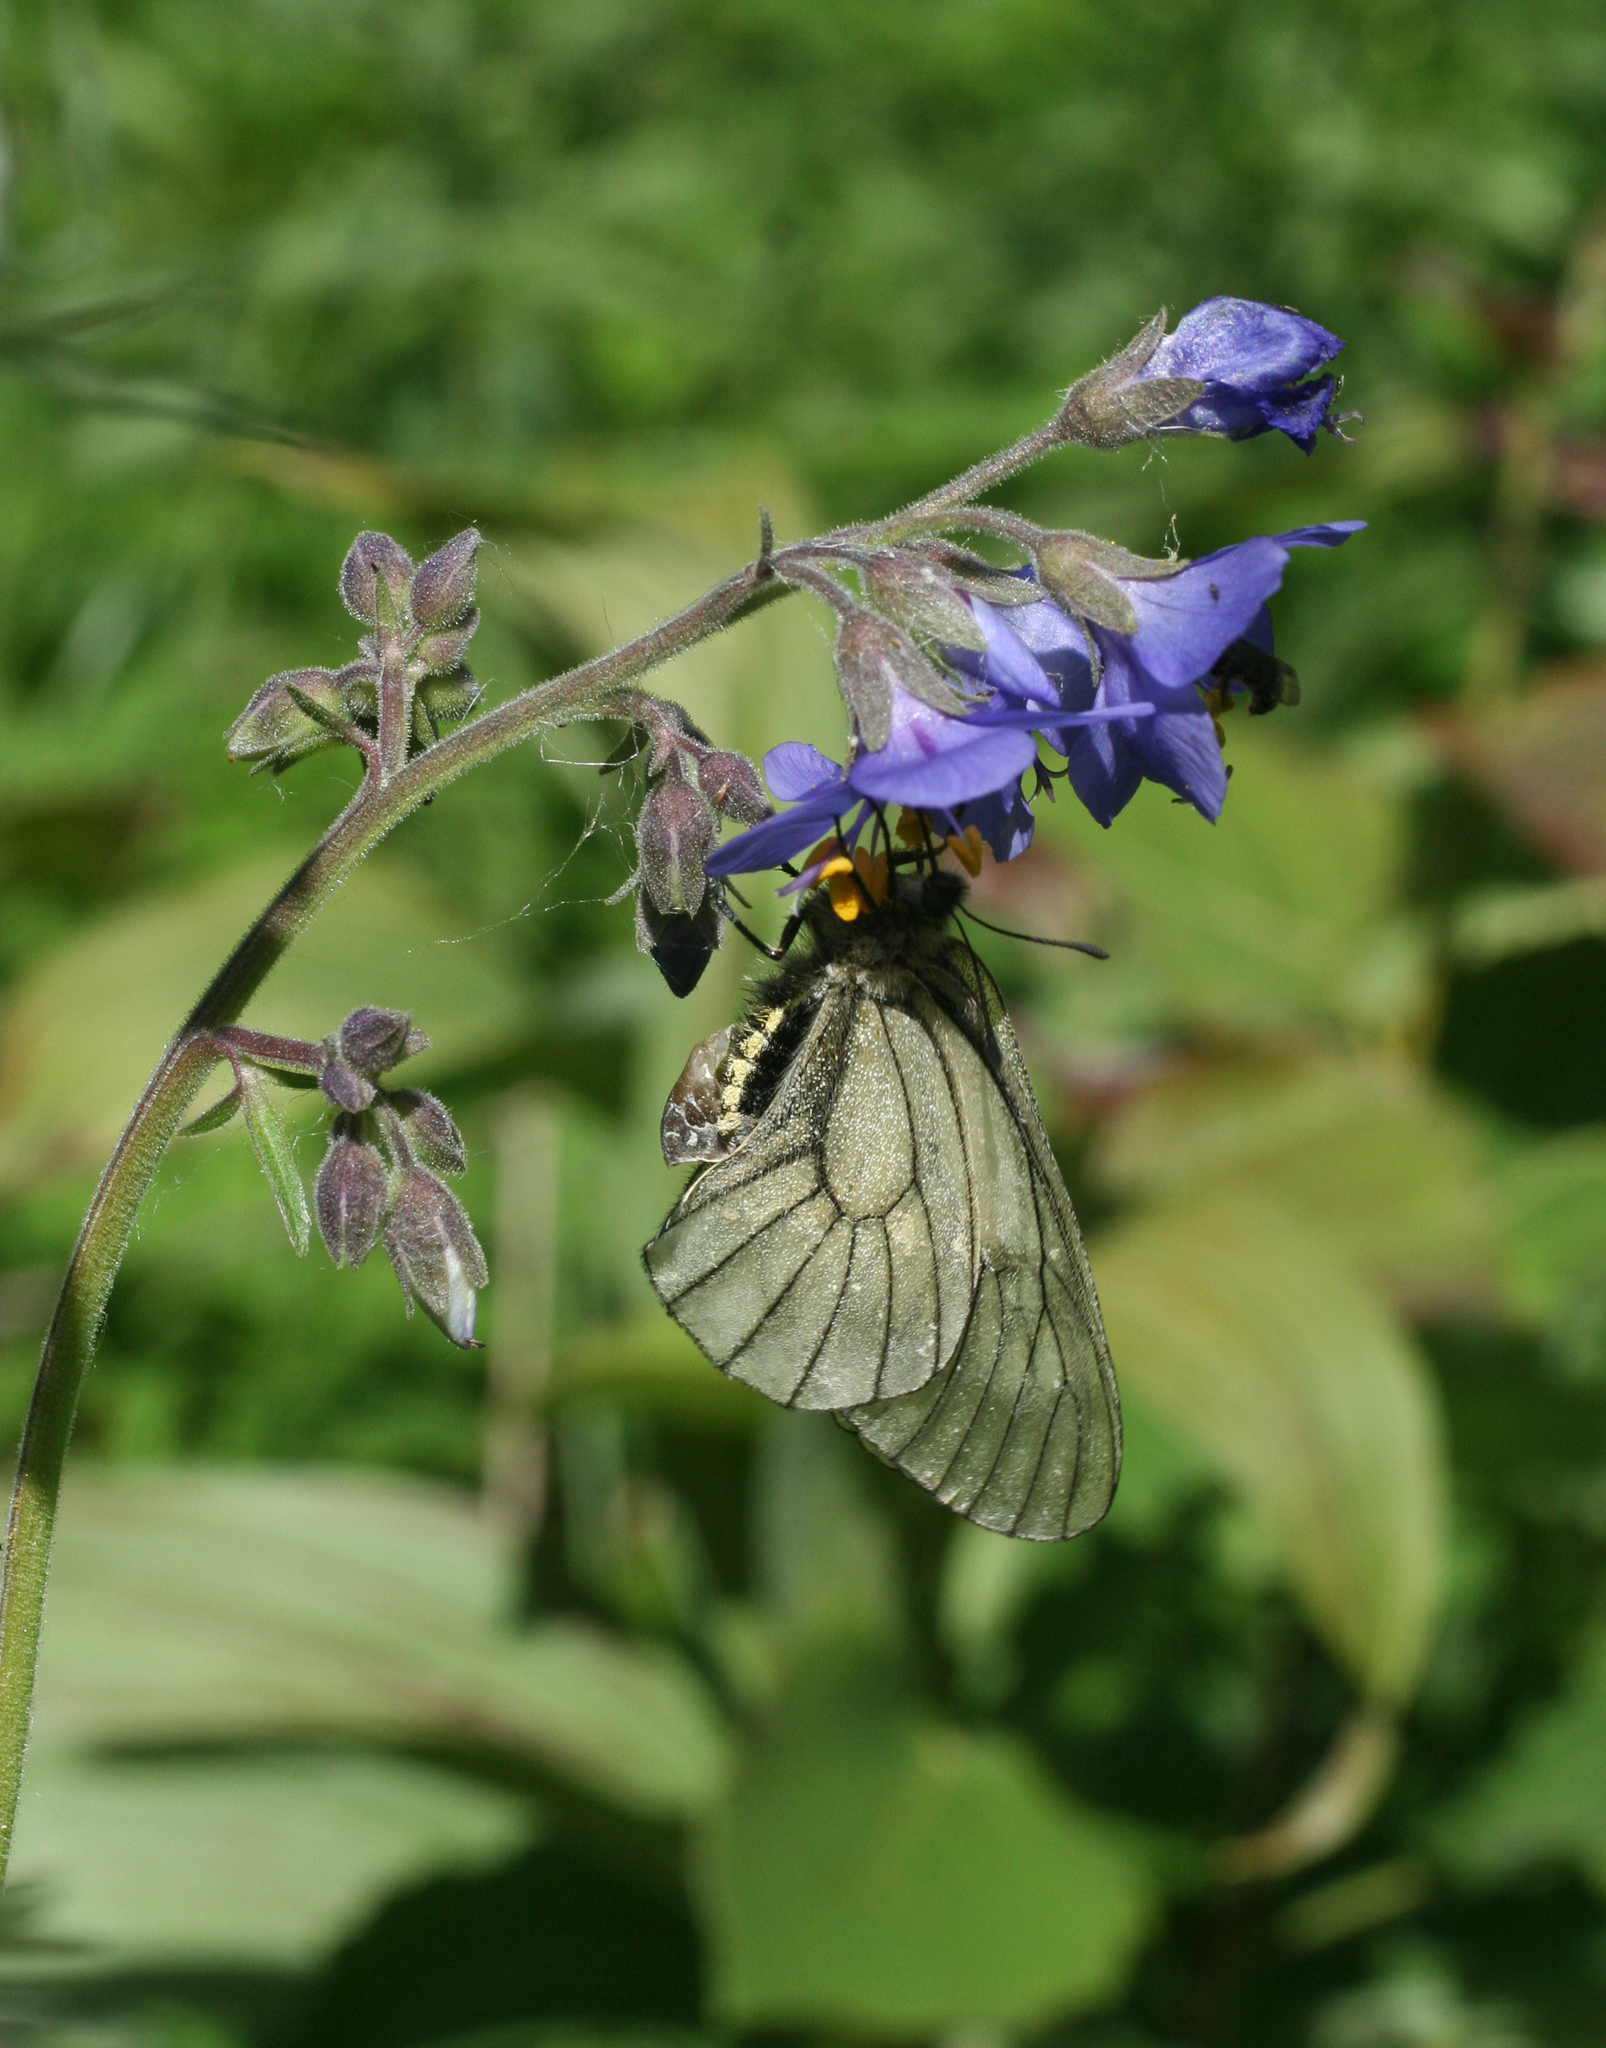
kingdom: Animalia
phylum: Arthropoda
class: Insecta
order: Lepidoptera
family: Papilionidae
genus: Parnassius
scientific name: Parnassius stubbendorfii
